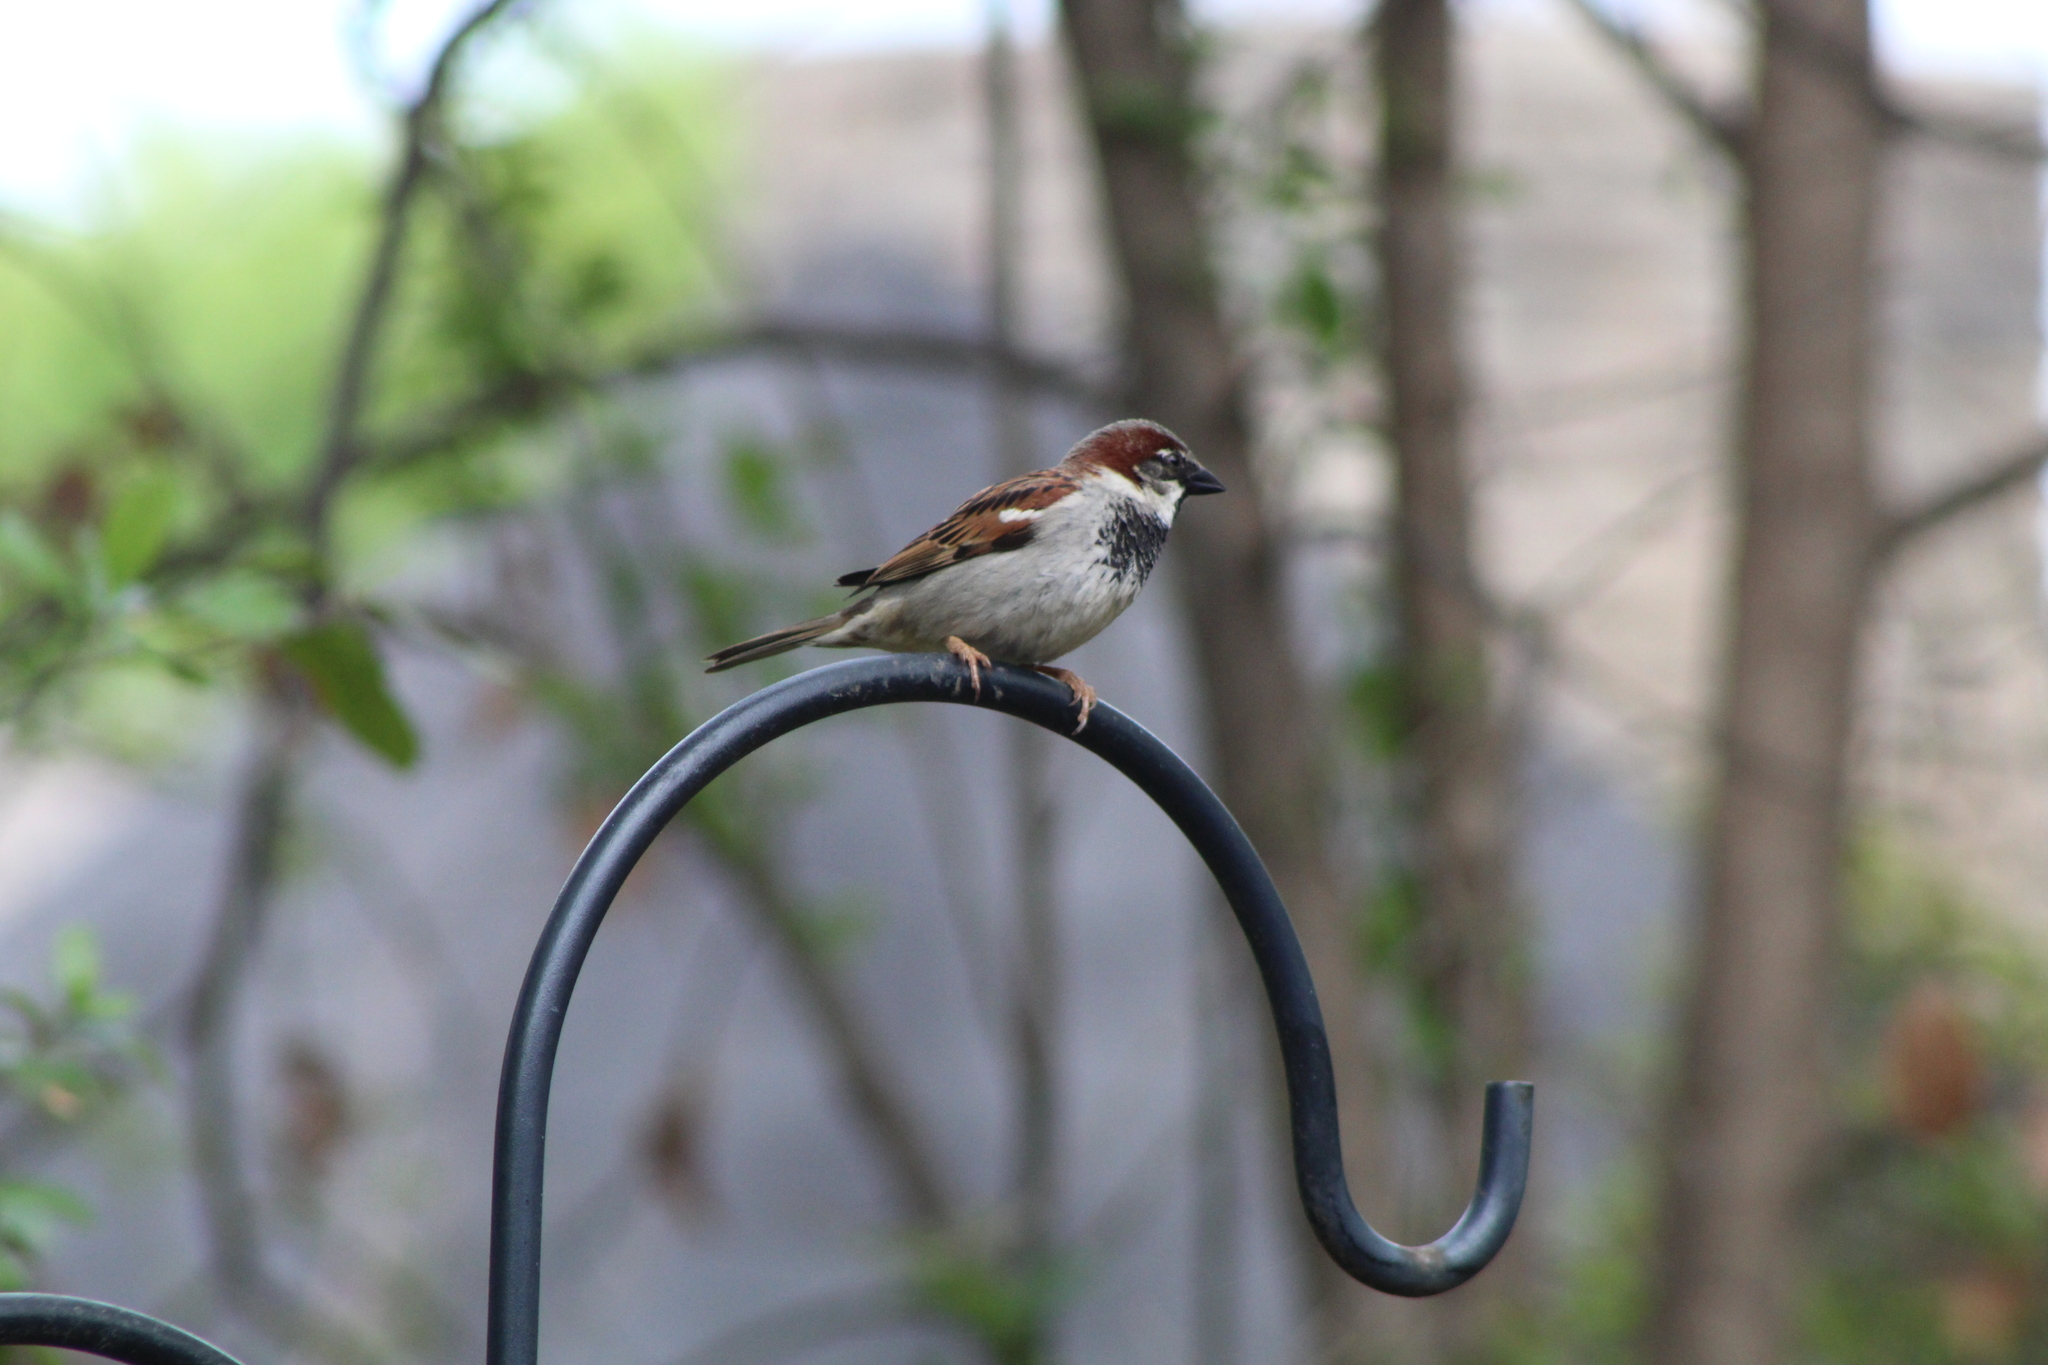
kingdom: Animalia
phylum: Chordata
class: Aves
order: Passeriformes
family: Passeridae
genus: Passer
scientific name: Passer domesticus
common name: House sparrow
